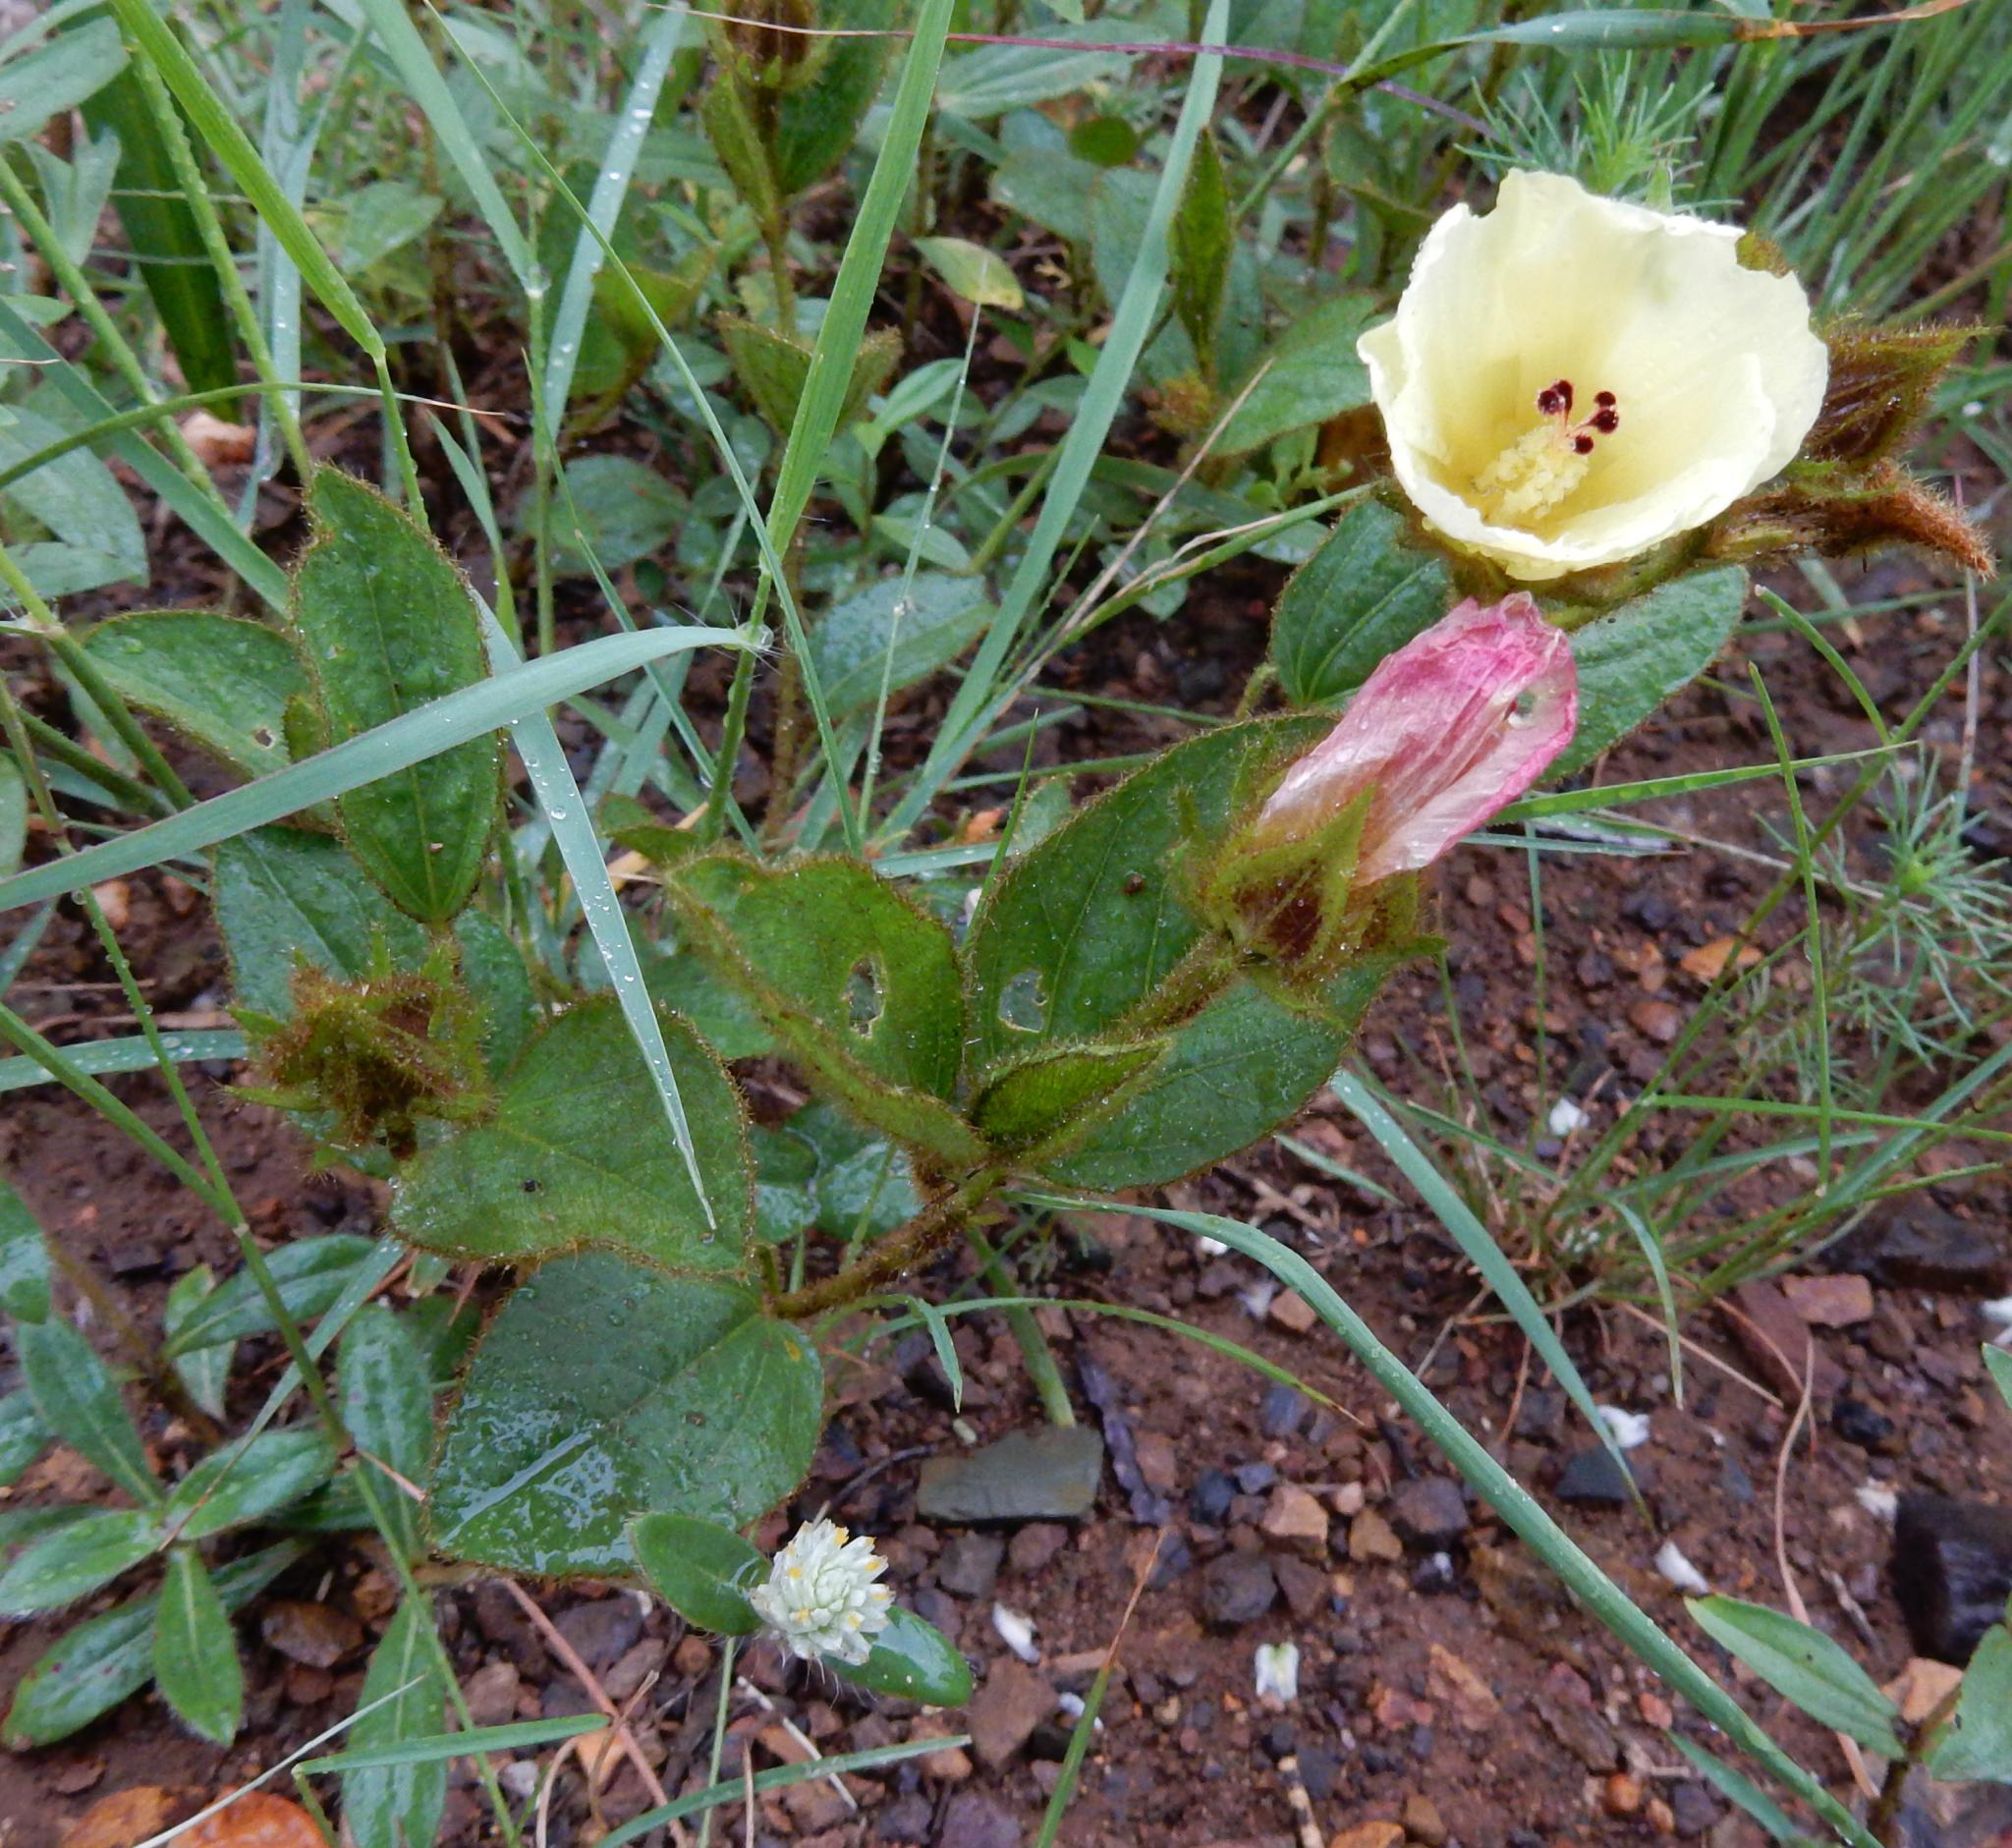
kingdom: Plantae
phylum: Tracheophyta
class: Magnoliopsida
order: Malvales
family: Malvaceae
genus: Hibiscus
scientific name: Hibiscus aethiopicus
